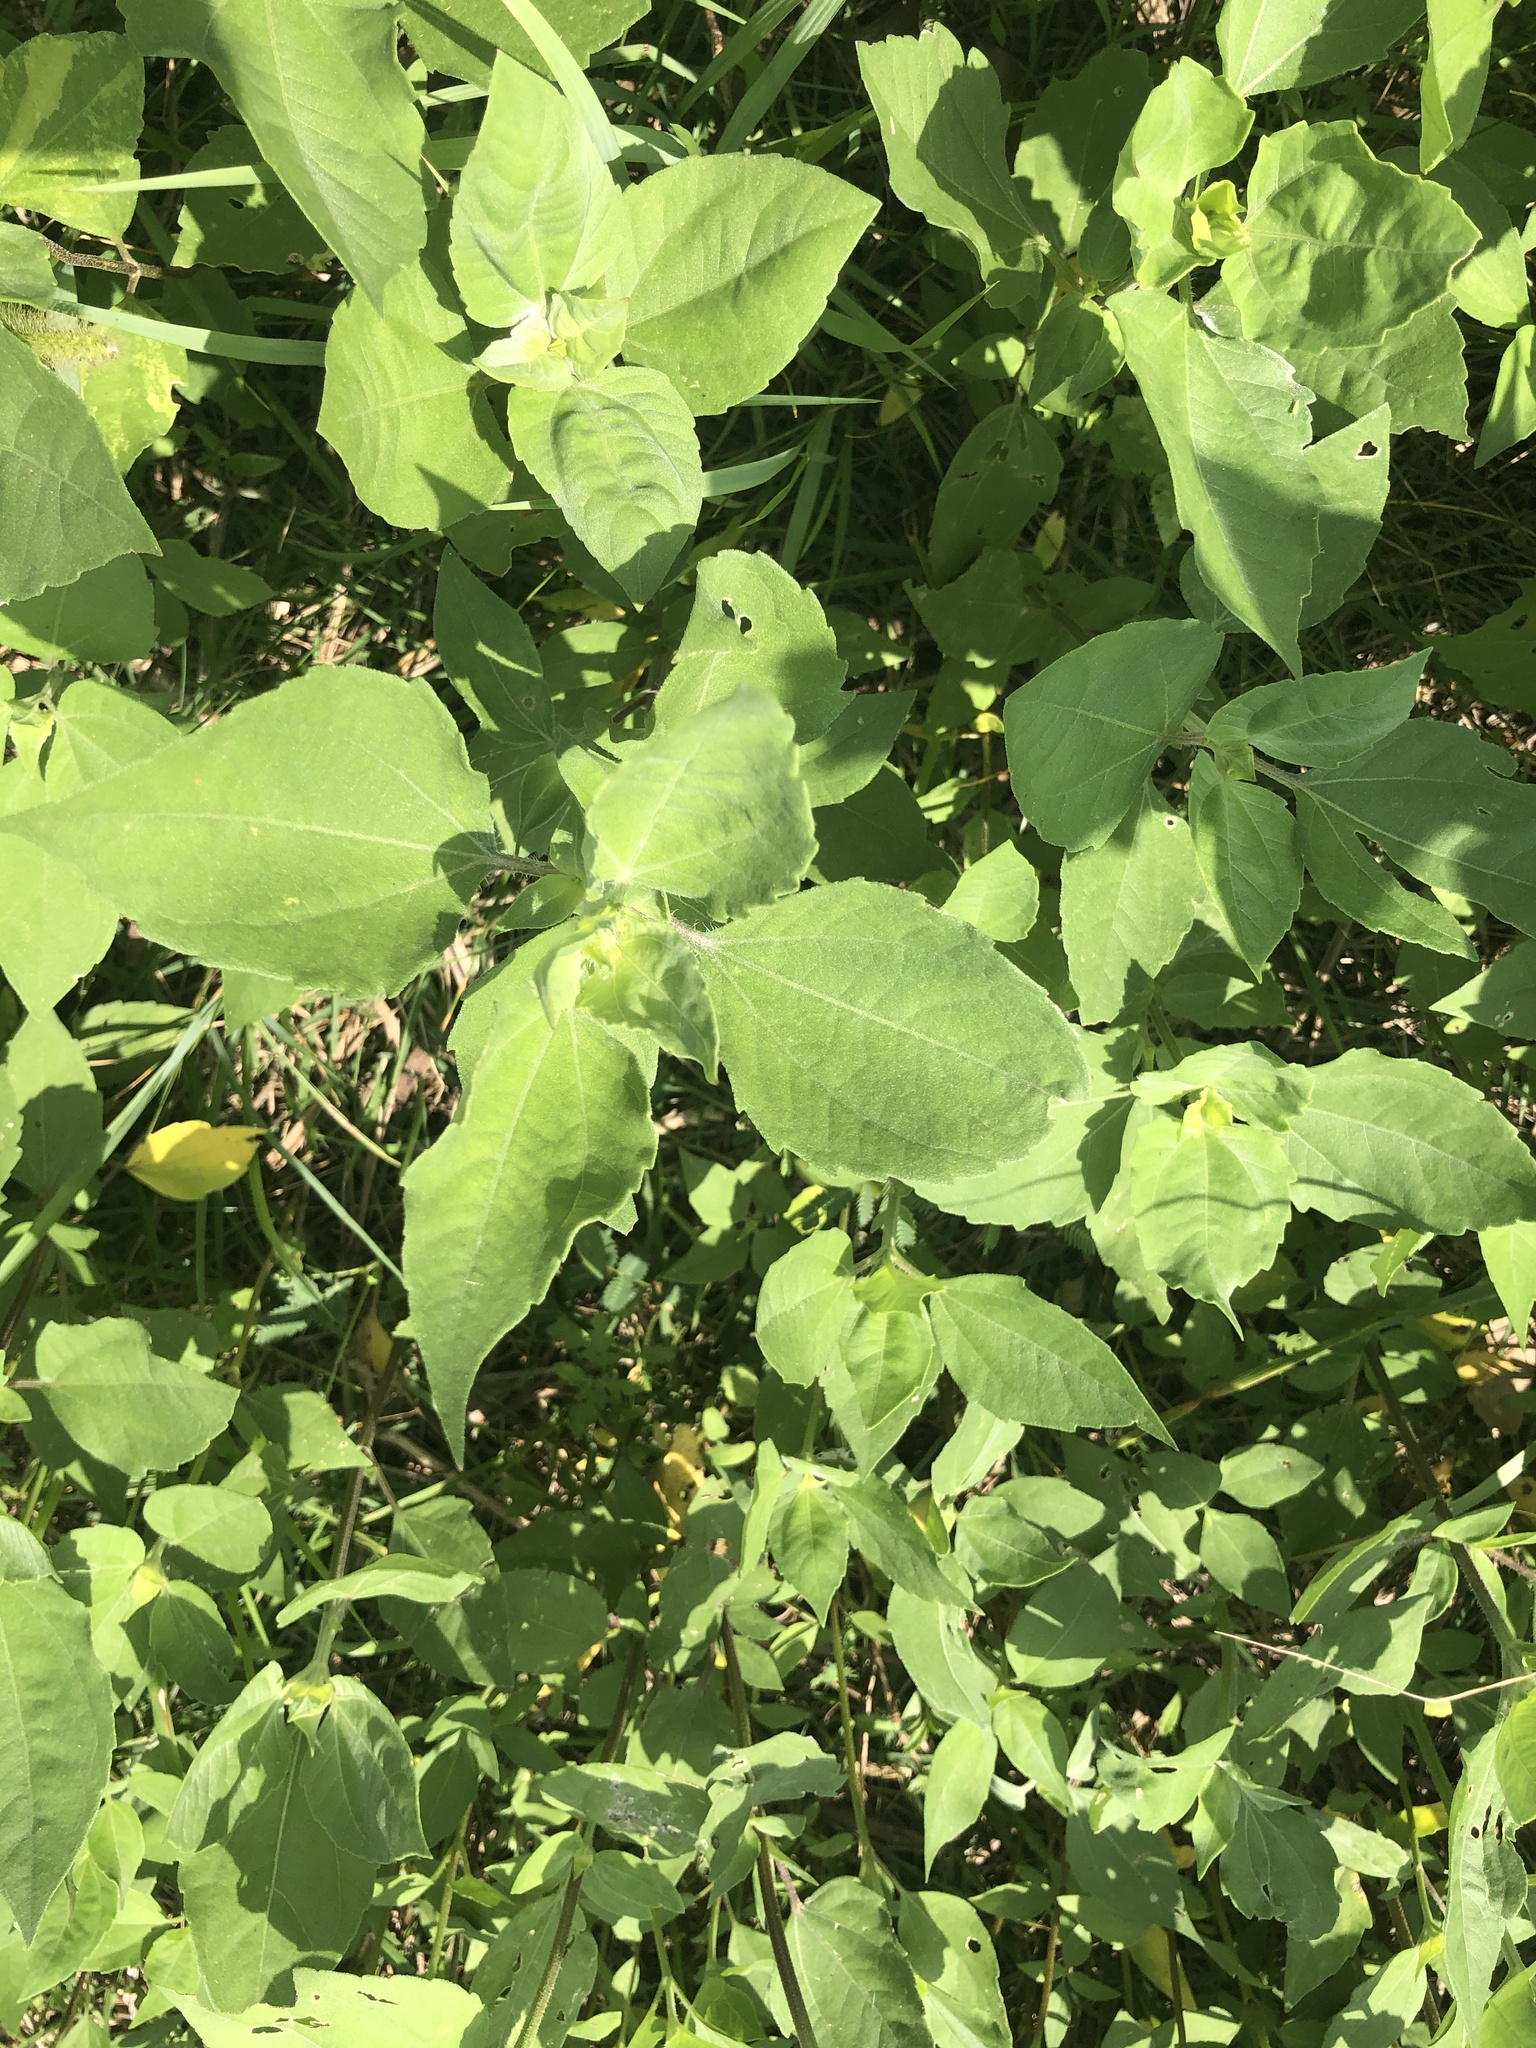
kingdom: Plantae
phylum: Tracheophyta
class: Magnoliopsida
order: Asterales
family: Asteraceae
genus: Iva
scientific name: Iva annua
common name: Marsh-elder
